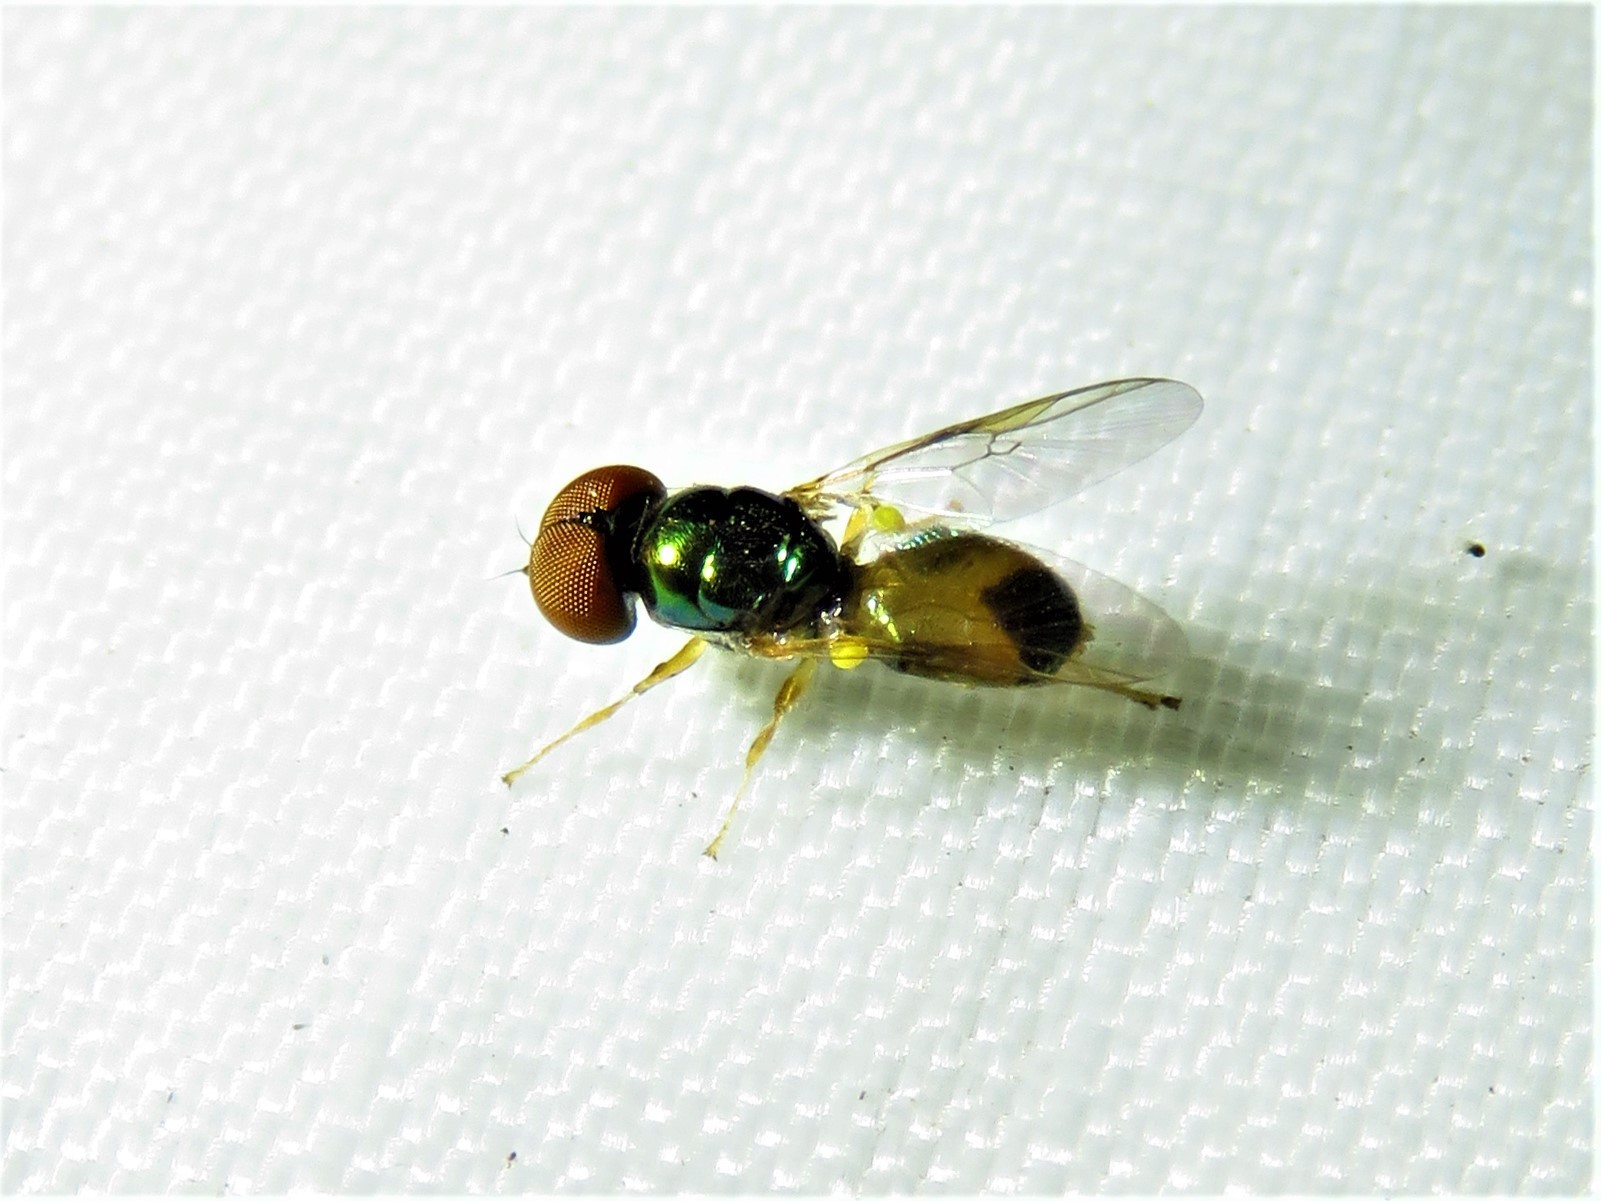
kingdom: Animalia
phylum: Arthropoda
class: Insecta
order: Diptera
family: Stratiomyidae
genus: Microchrysa
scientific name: Microchrysa flaviventris
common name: Soldier fly
